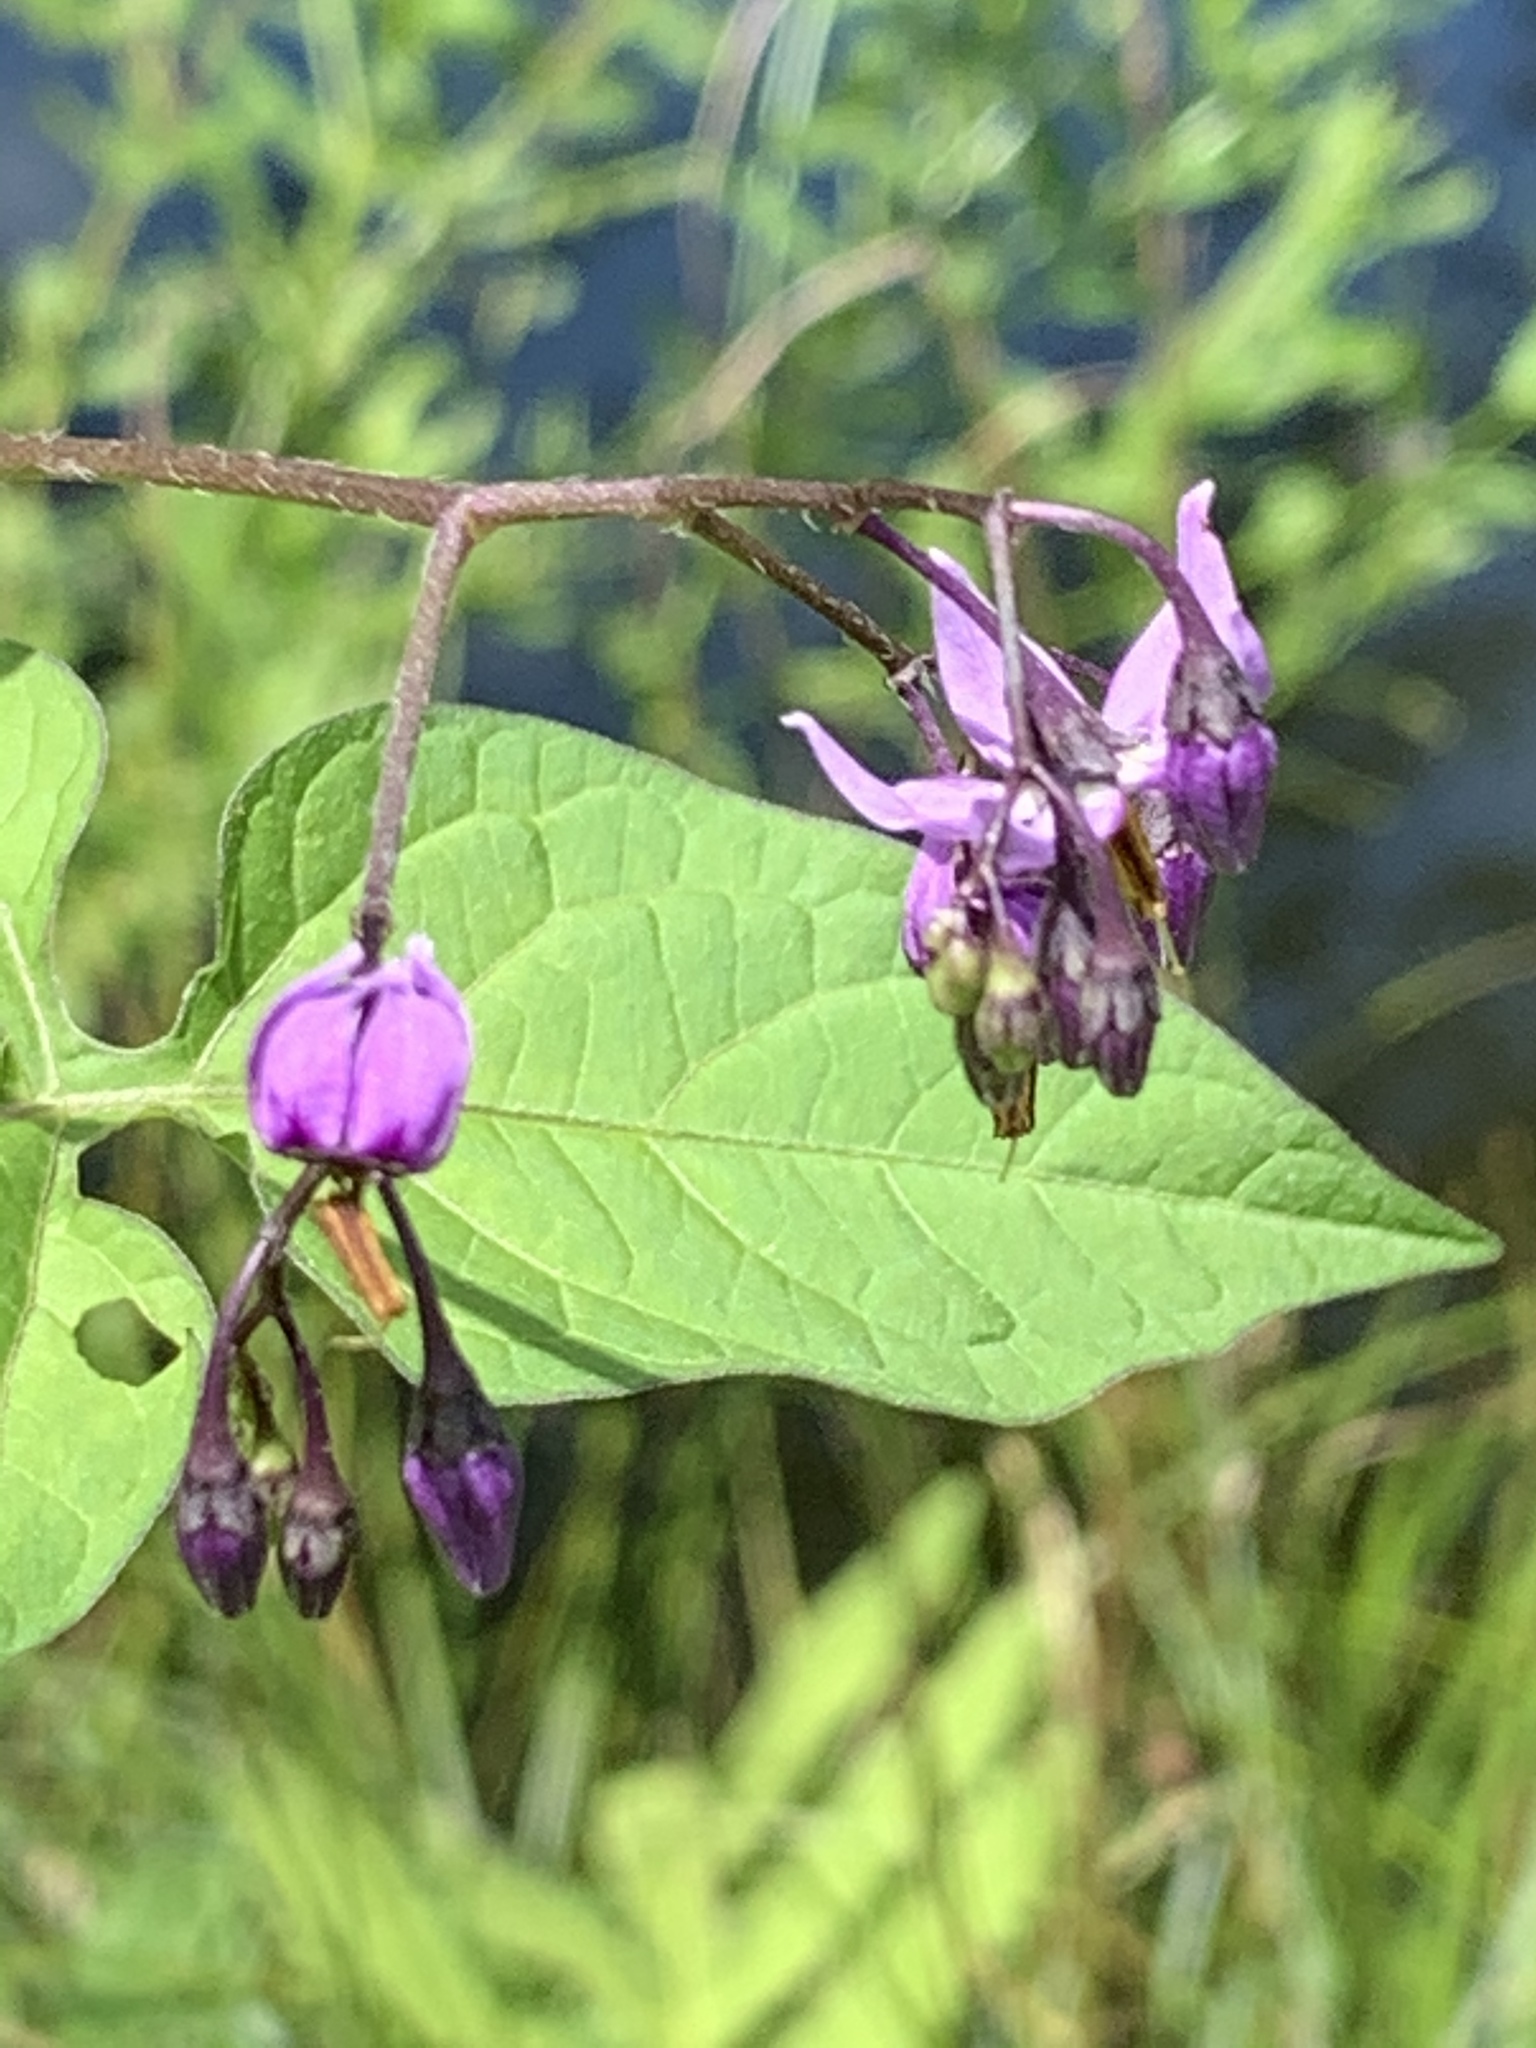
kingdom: Plantae
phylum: Tracheophyta
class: Magnoliopsida
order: Solanales
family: Solanaceae
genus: Solanum
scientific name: Solanum dulcamara
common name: Climbing nightshade
